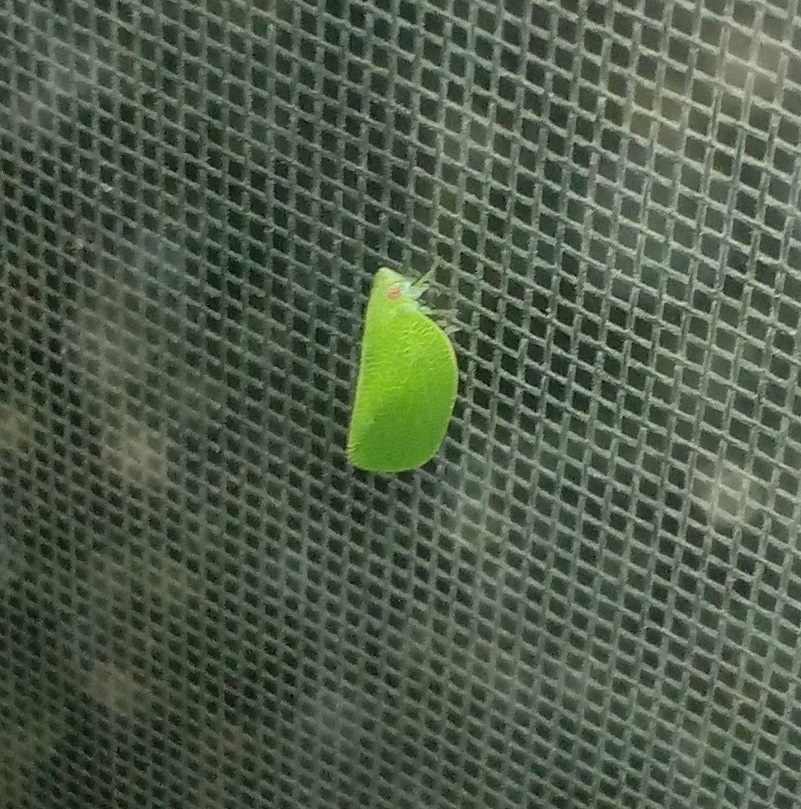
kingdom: Animalia
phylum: Arthropoda
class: Insecta
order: Hemiptera
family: Acanaloniidae
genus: Acanalonia
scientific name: Acanalonia conica
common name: Green cone-headed planthopper
